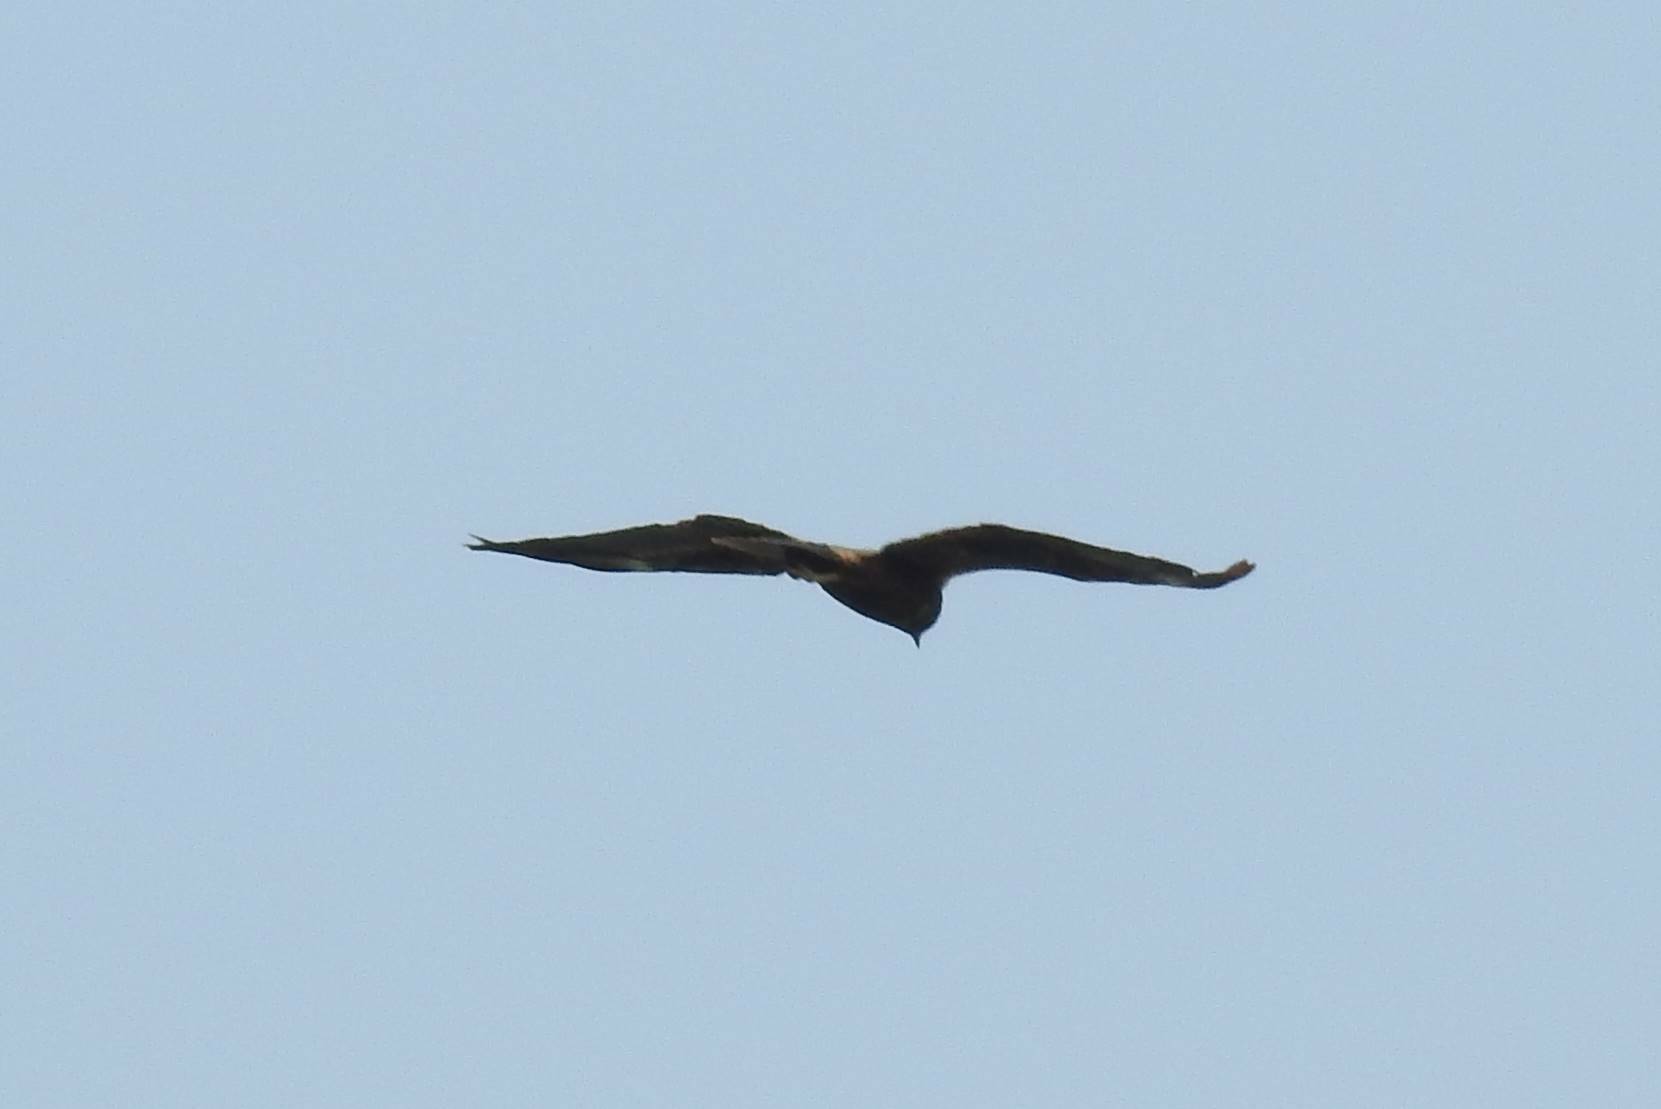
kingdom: Animalia
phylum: Chordata
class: Aves
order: Accipitriformes
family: Accipitridae
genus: Circus
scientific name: Circus aeruginosus
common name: Western marsh harrier
